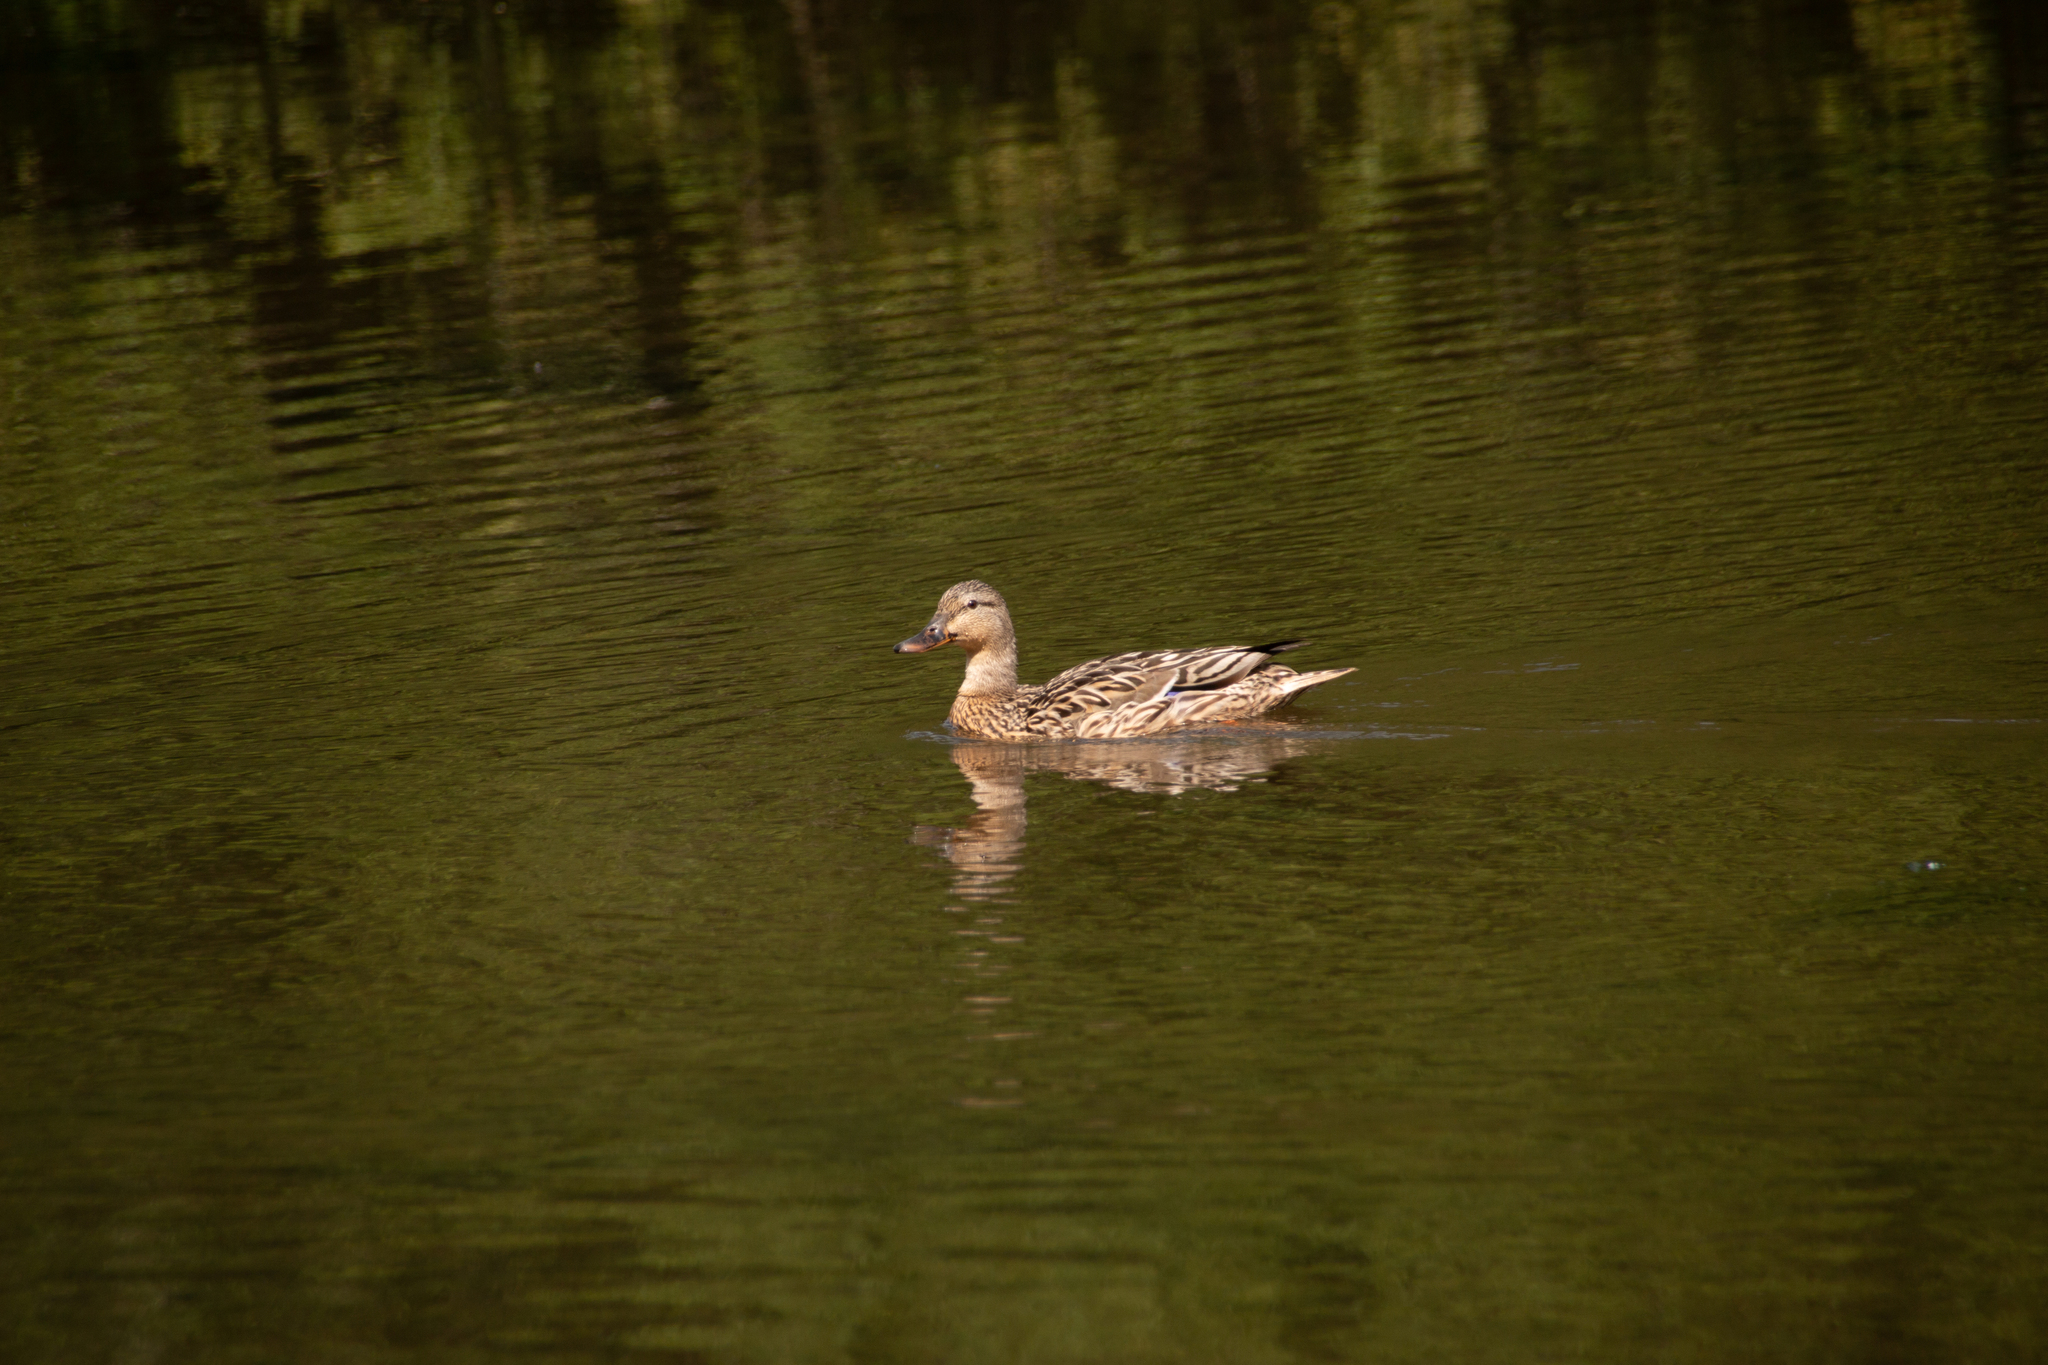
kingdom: Animalia
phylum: Chordata
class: Aves
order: Anseriformes
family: Anatidae
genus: Anas
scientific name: Anas platyrhynchos
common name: Mallard
